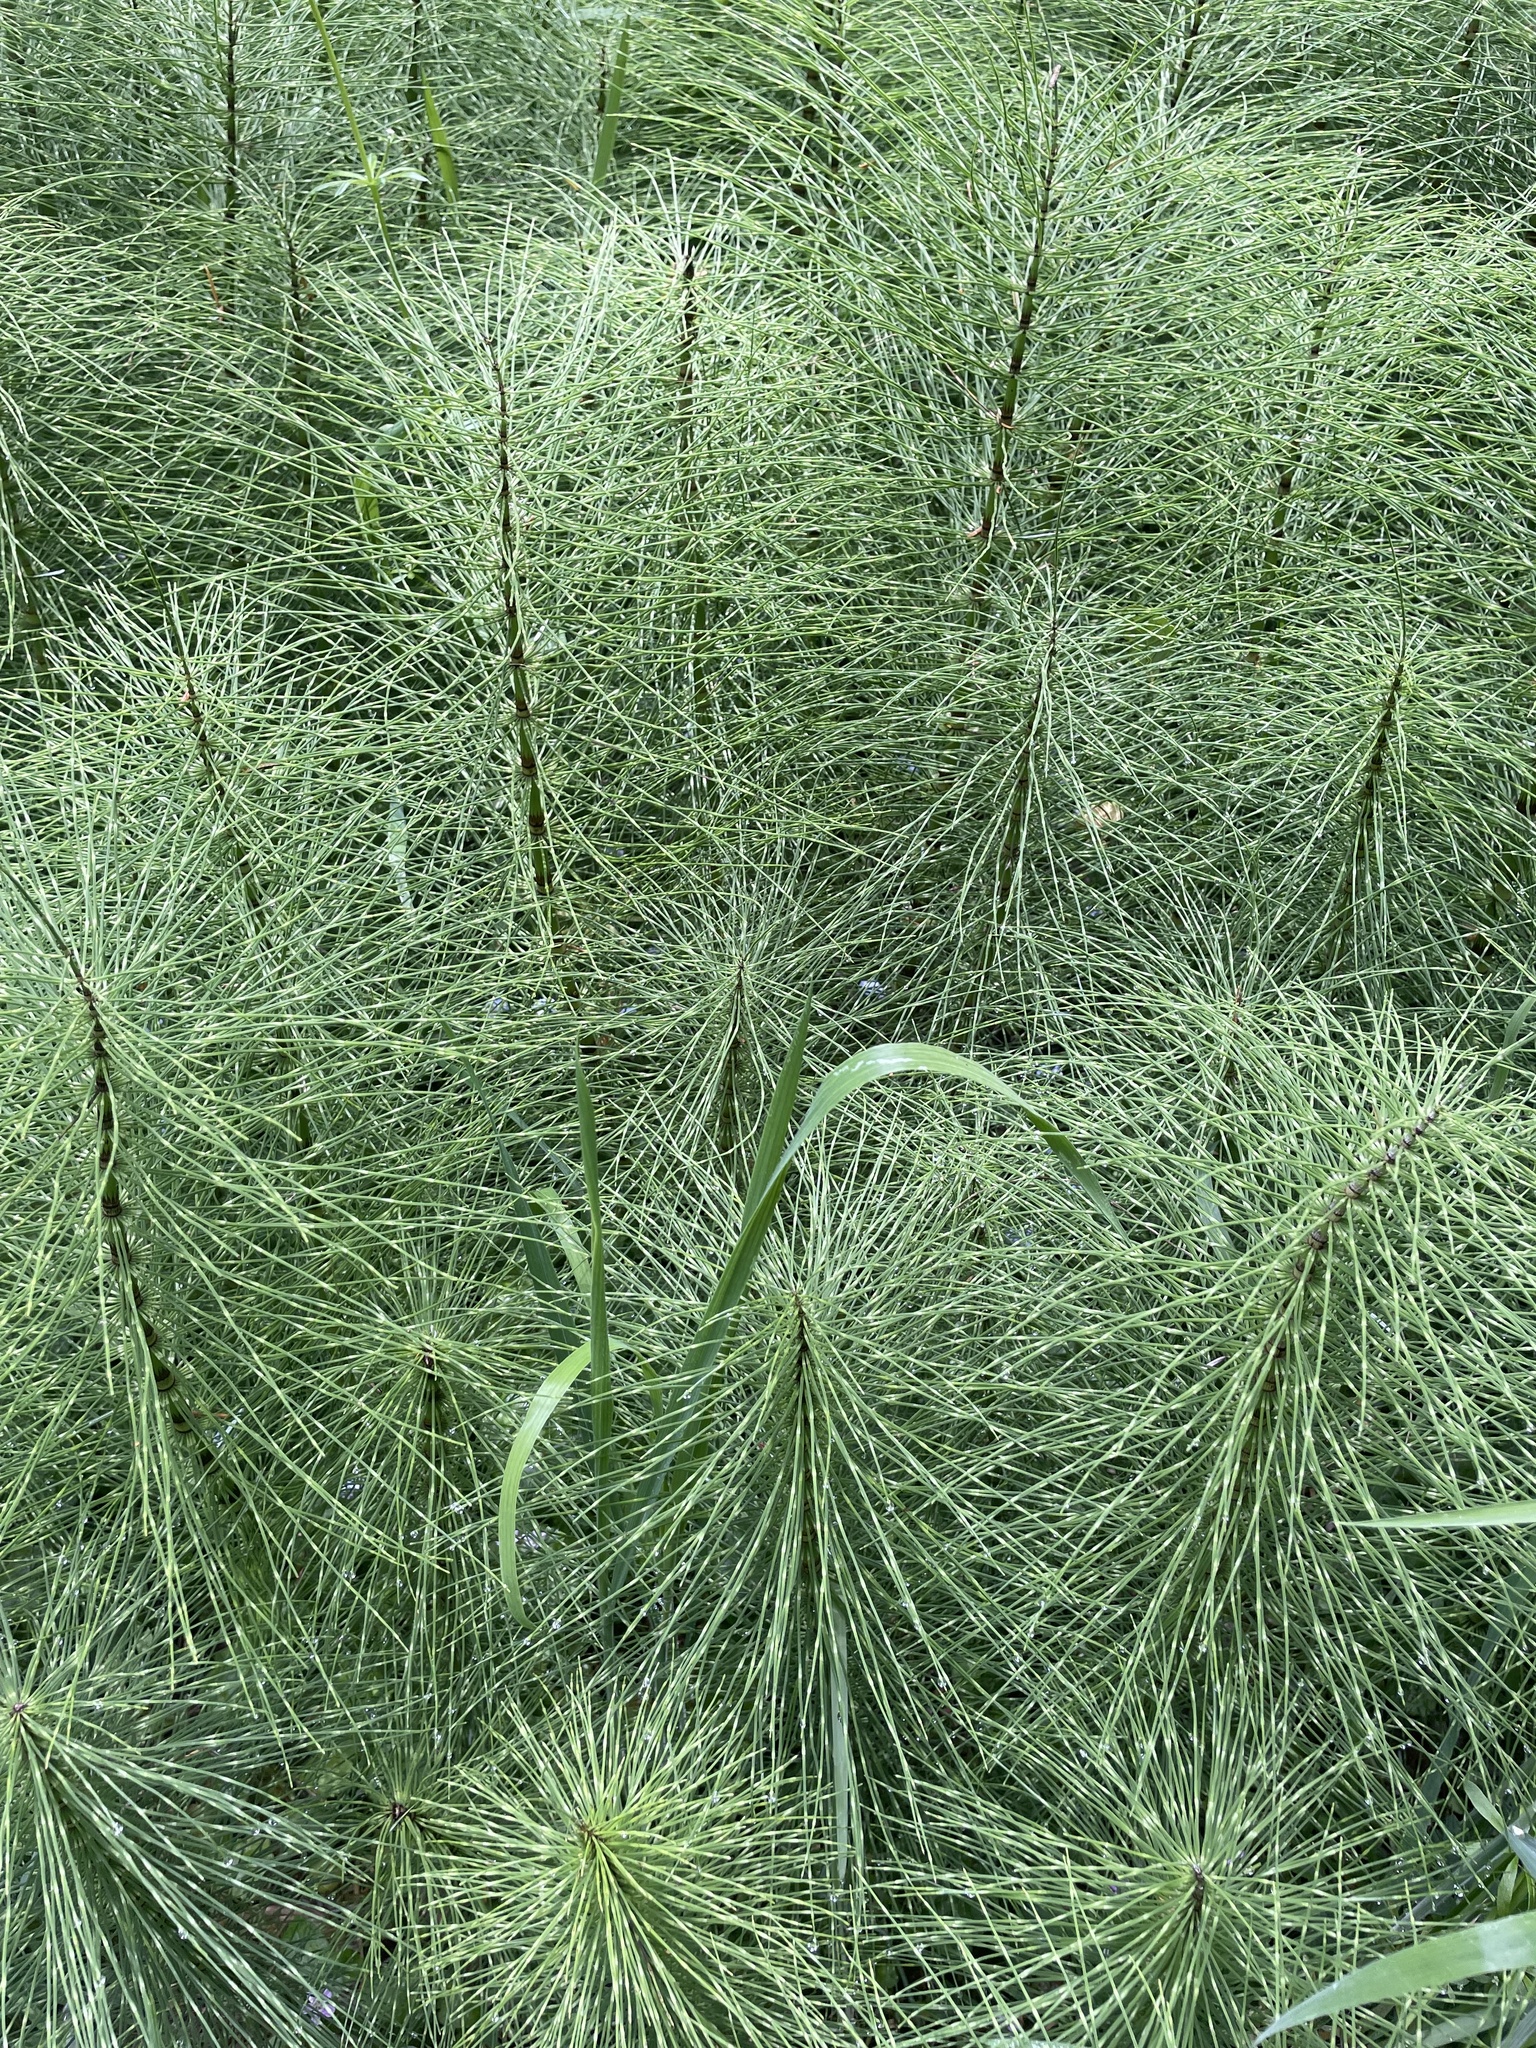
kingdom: Plantae
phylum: Tracheophyta
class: Polypodiopsida
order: Equisetales
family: Equisetaceae
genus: Equisetum
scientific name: Equisetum telmateia
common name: Great horsetail
